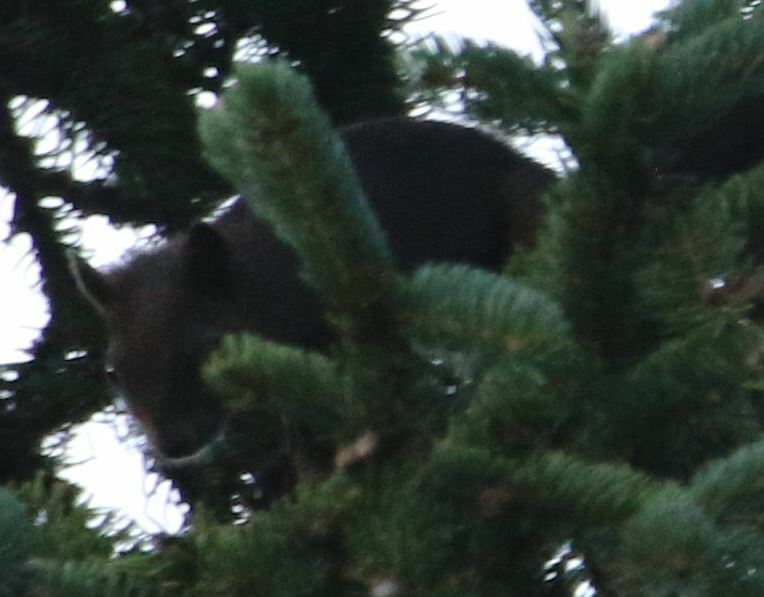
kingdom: Animalia
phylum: Chordata
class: Mammalia
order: Rodentia
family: Sciuridae
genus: Sciurus
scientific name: Sciurus vulgaris
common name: Eurasian red squirrel
